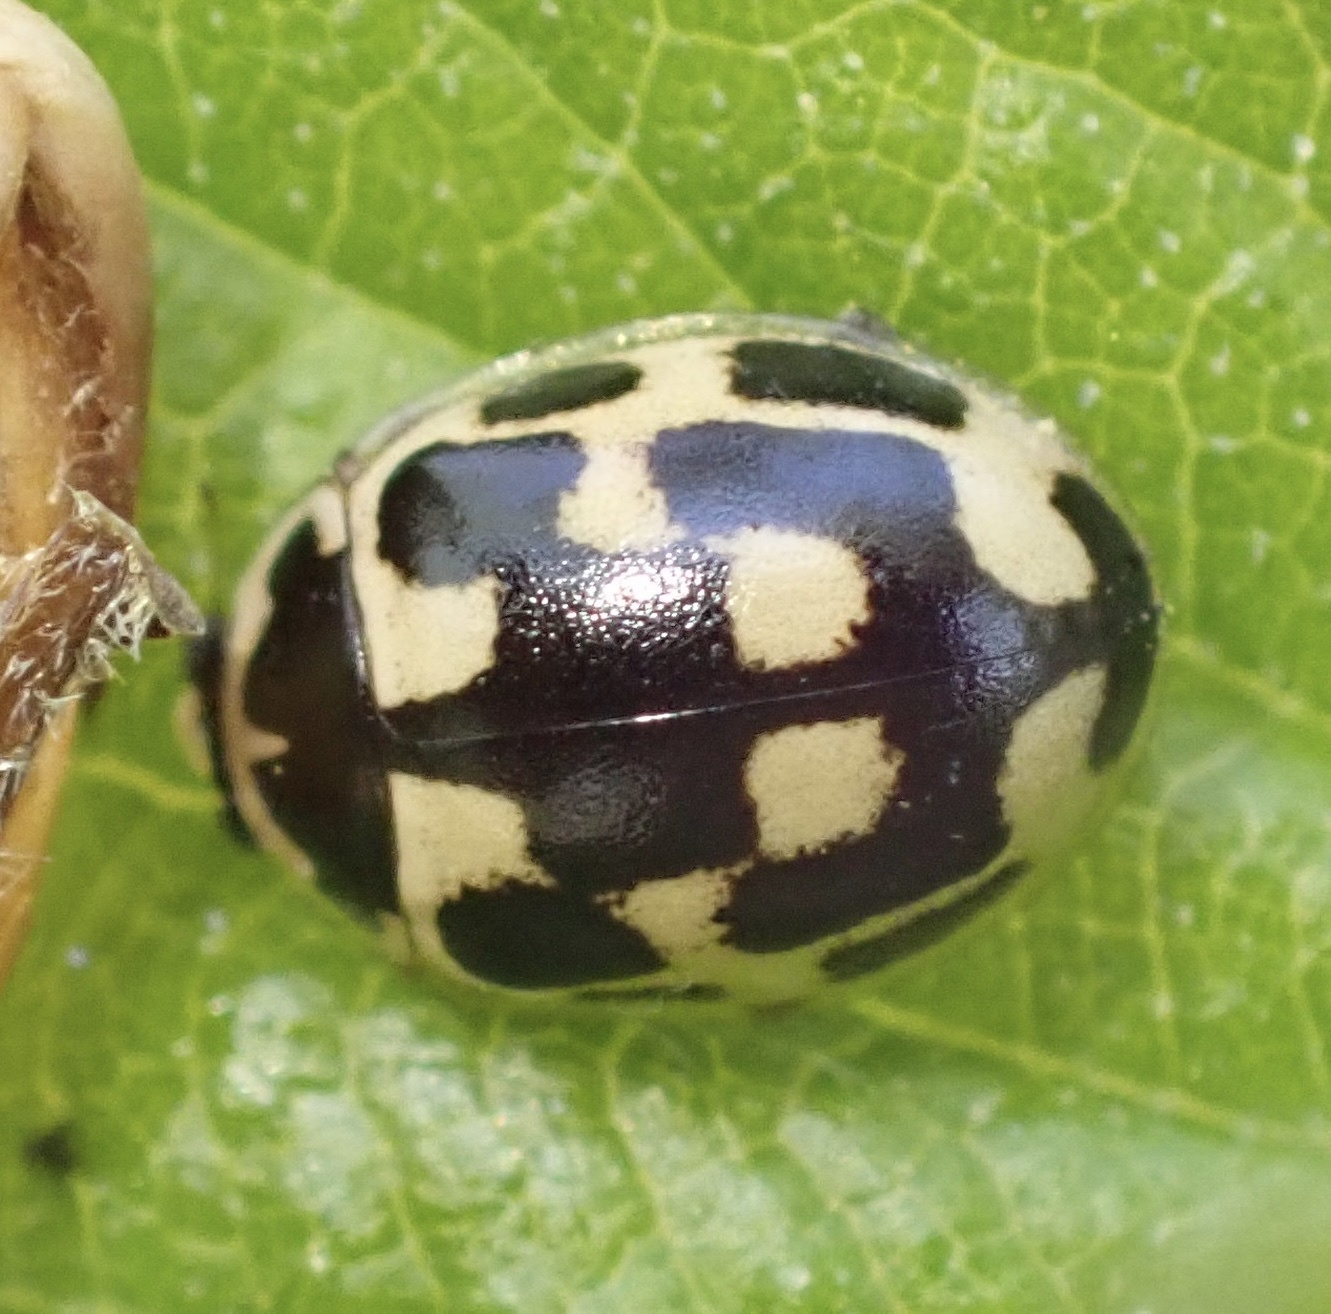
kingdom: Animalia
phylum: Arthropoda
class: Insecta
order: Coleoptera
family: Coccinellidae
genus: Propylaea
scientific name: Propylaea quatuordecimpunctata
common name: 14-spotted ladybird beetle
